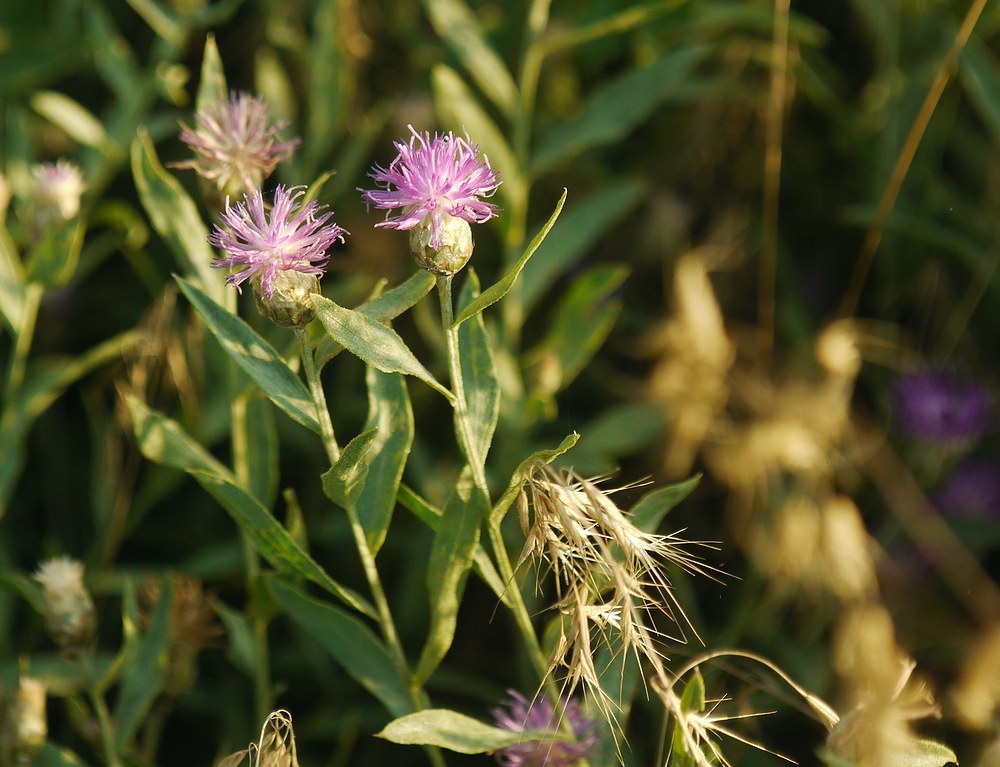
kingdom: Plantae
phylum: Tracheophyta
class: Magnoliopsida
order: Asterales
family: Asteraceae
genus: Leuzea
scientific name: Leuzea repens
